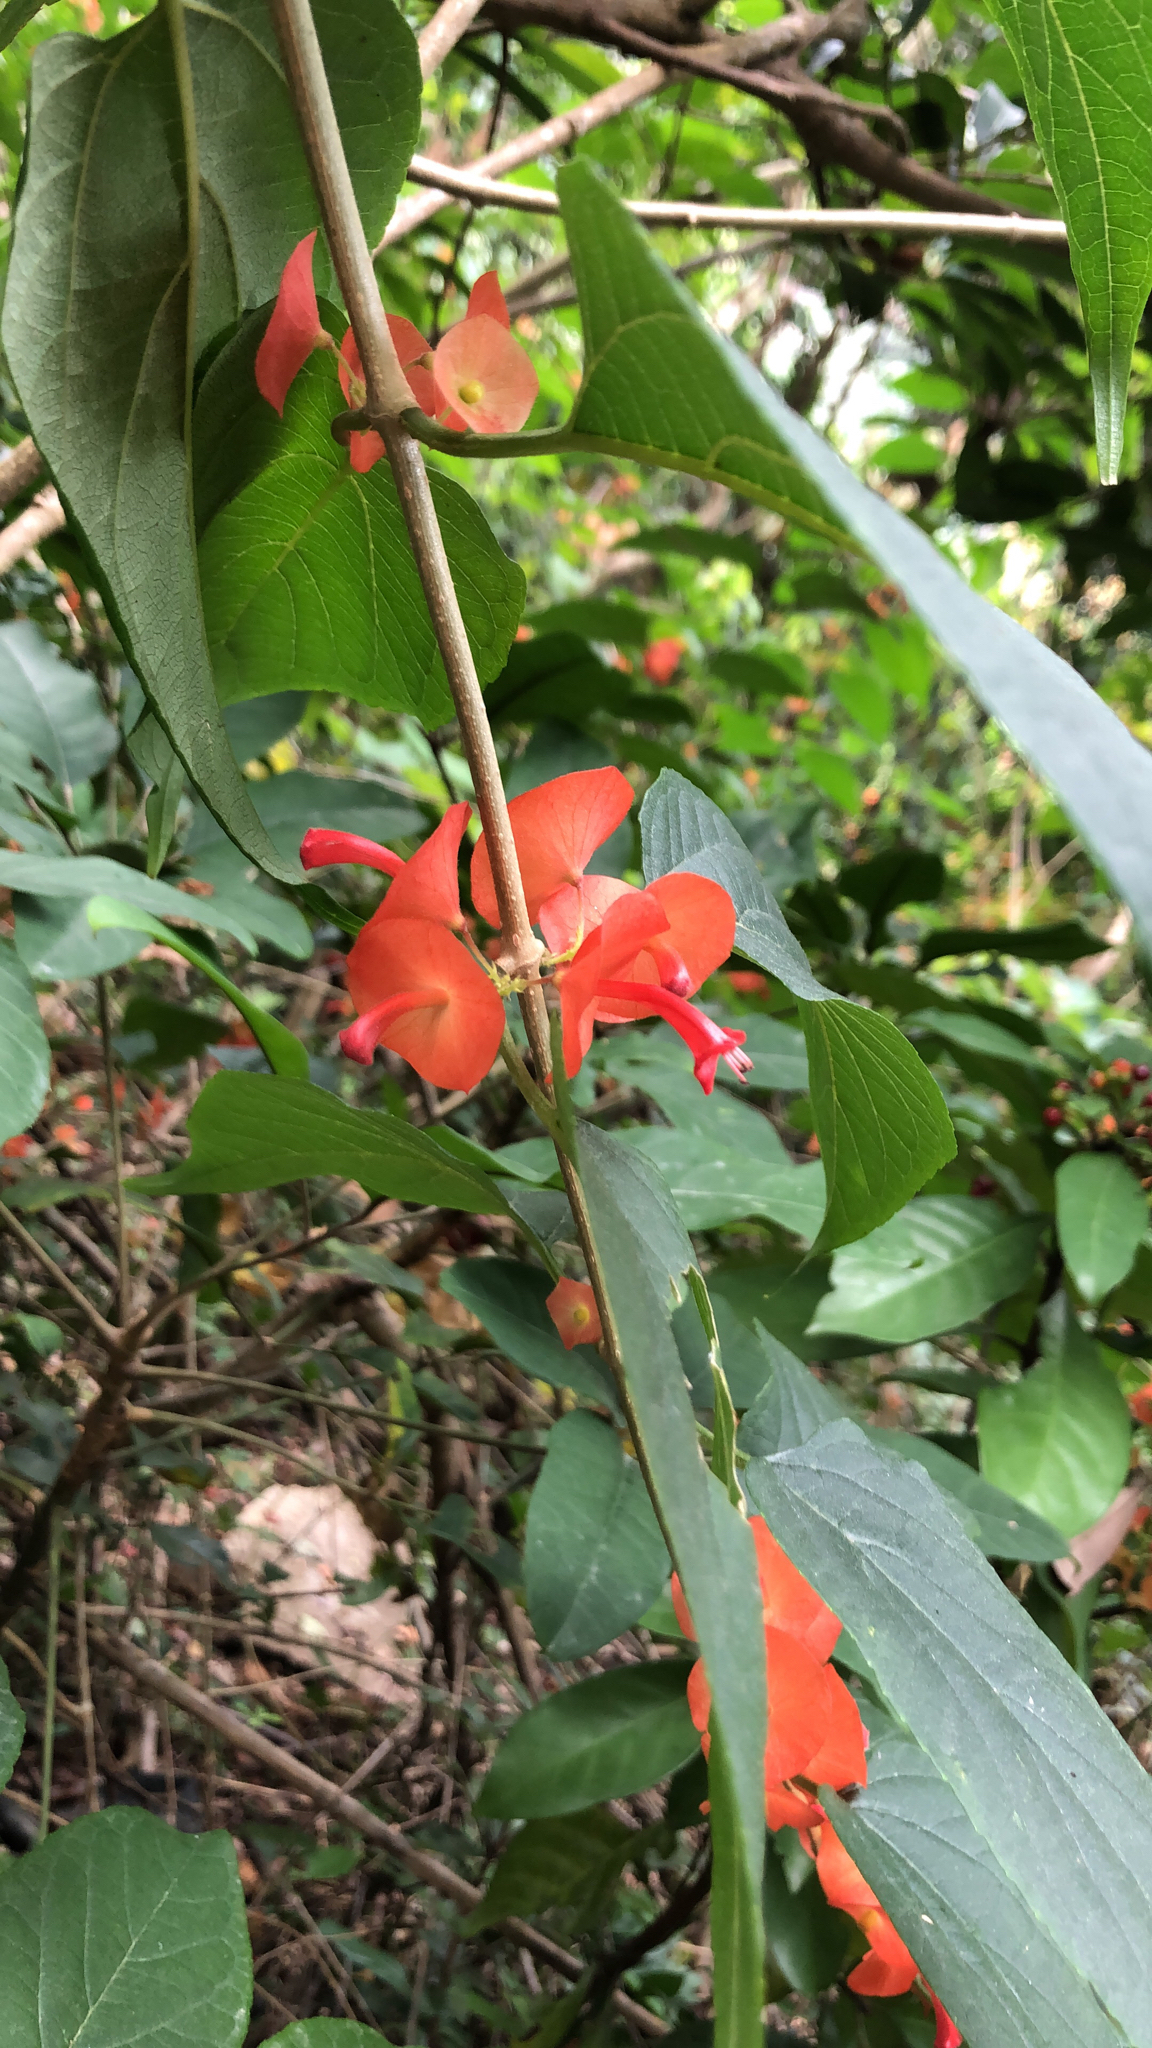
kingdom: Plantae
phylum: Tracheophyta
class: Magnoliopsida
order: Lamiales
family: Lamiaceae
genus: Holmskioldia
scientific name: Holmskioldia sanguinea
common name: Chinese hatplant
